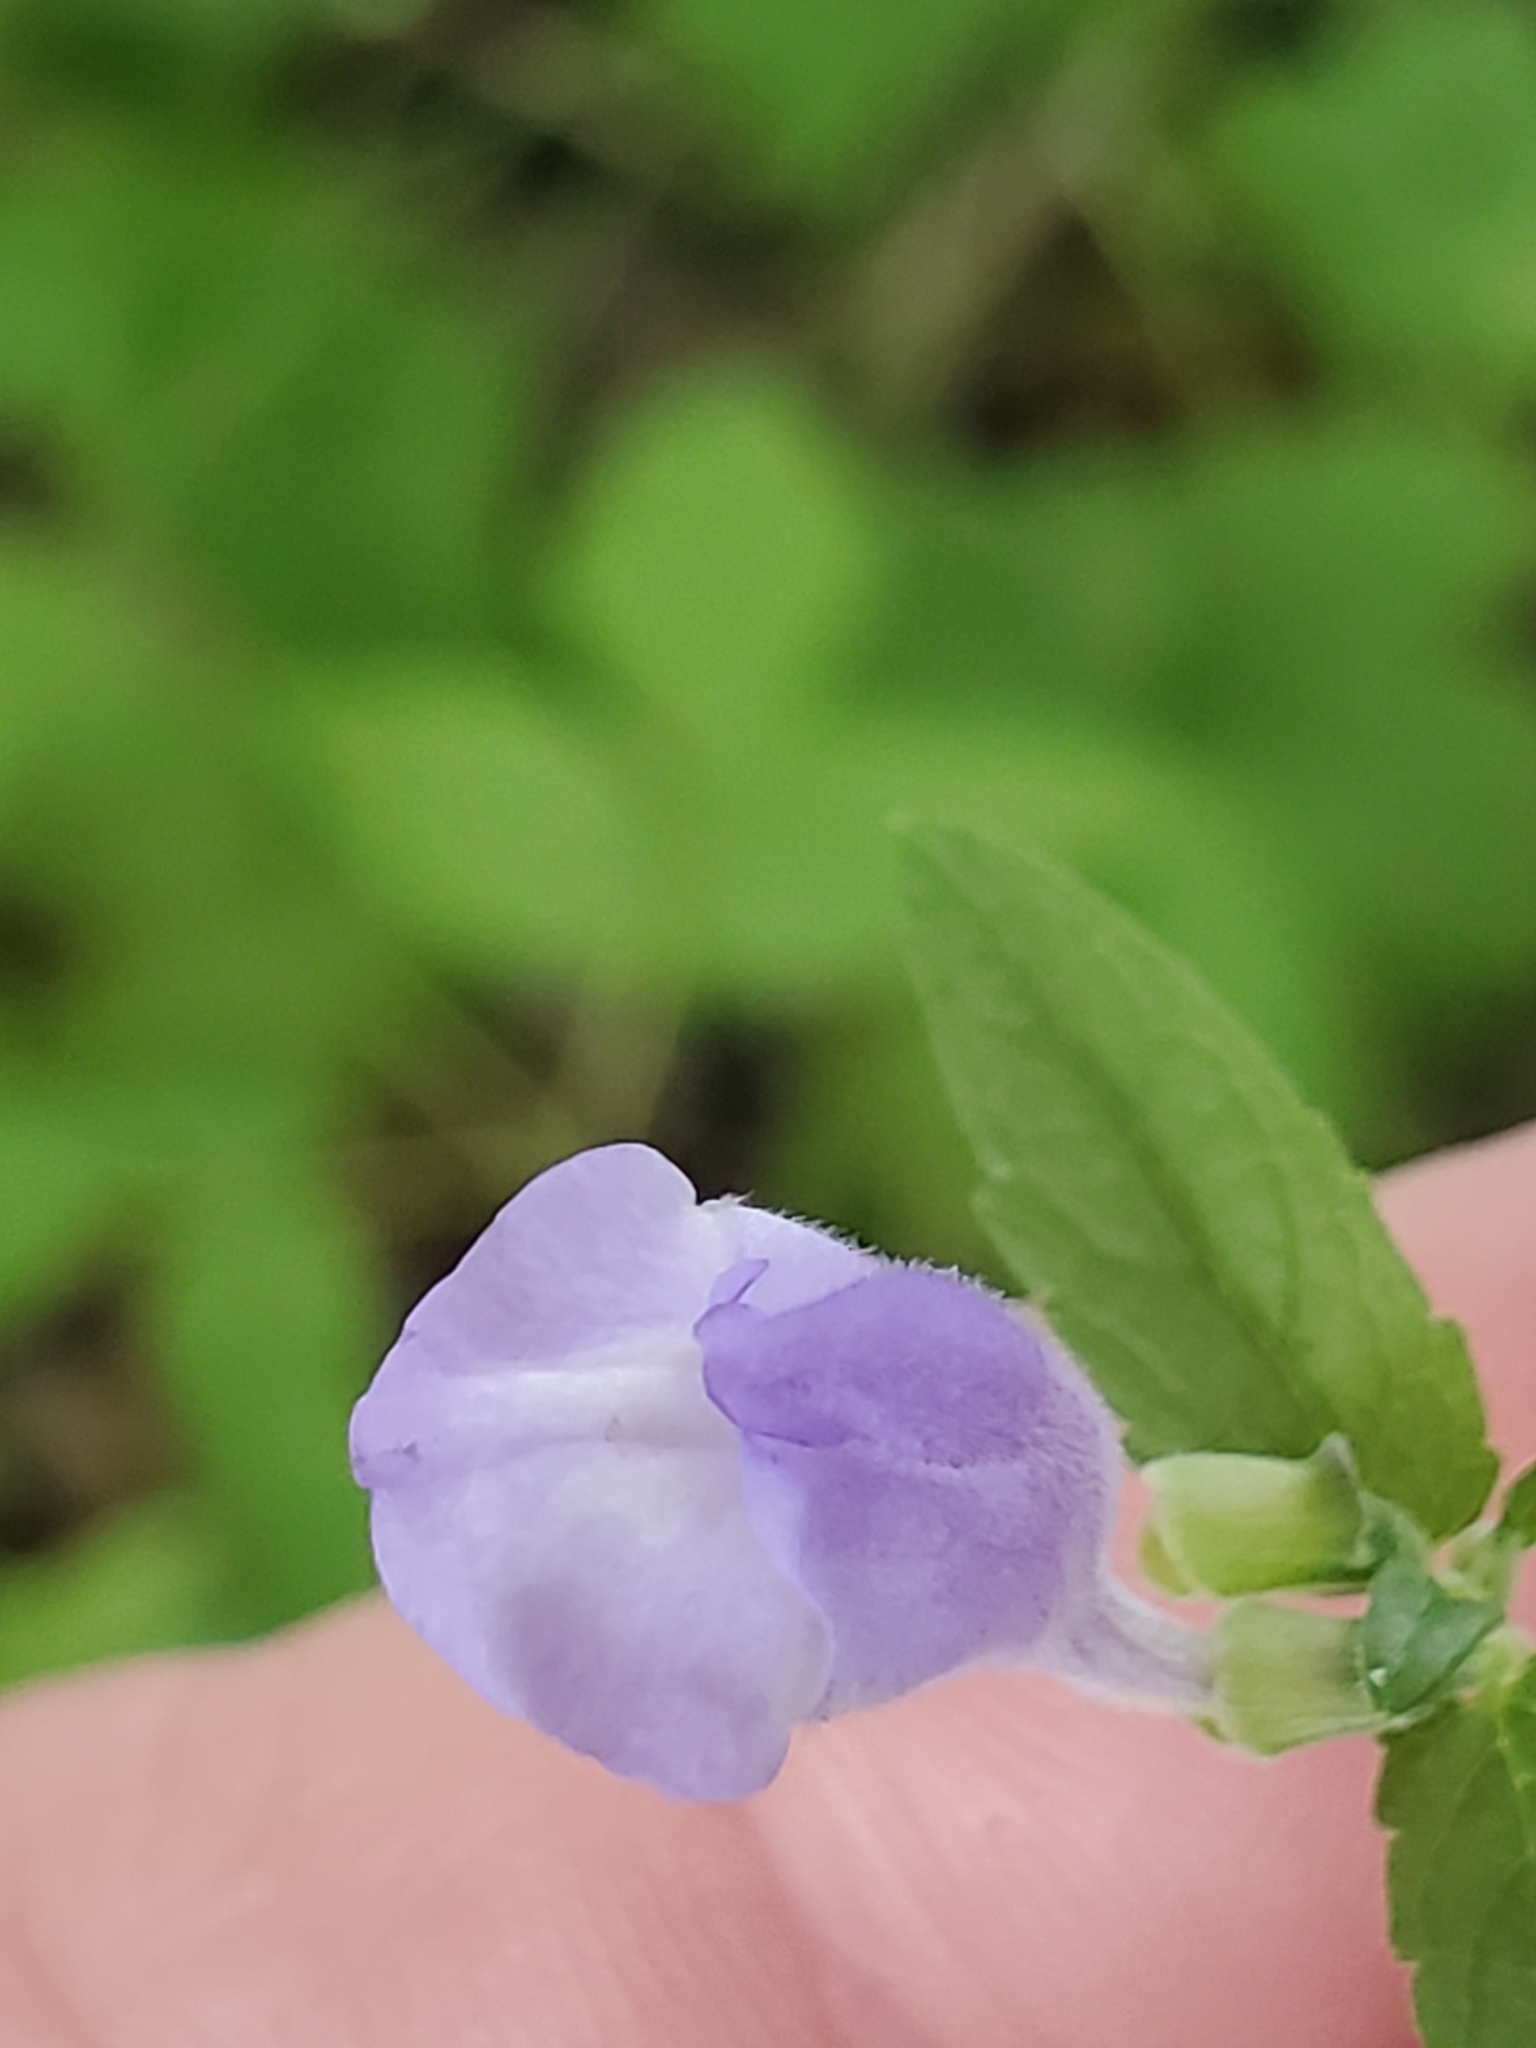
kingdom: Plantae
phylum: Tracheophyta
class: Magnoliopsida
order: Lamiales
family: Lamiaceae
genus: Scutellaria
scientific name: Scutellaria galericulata
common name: Skullcap
